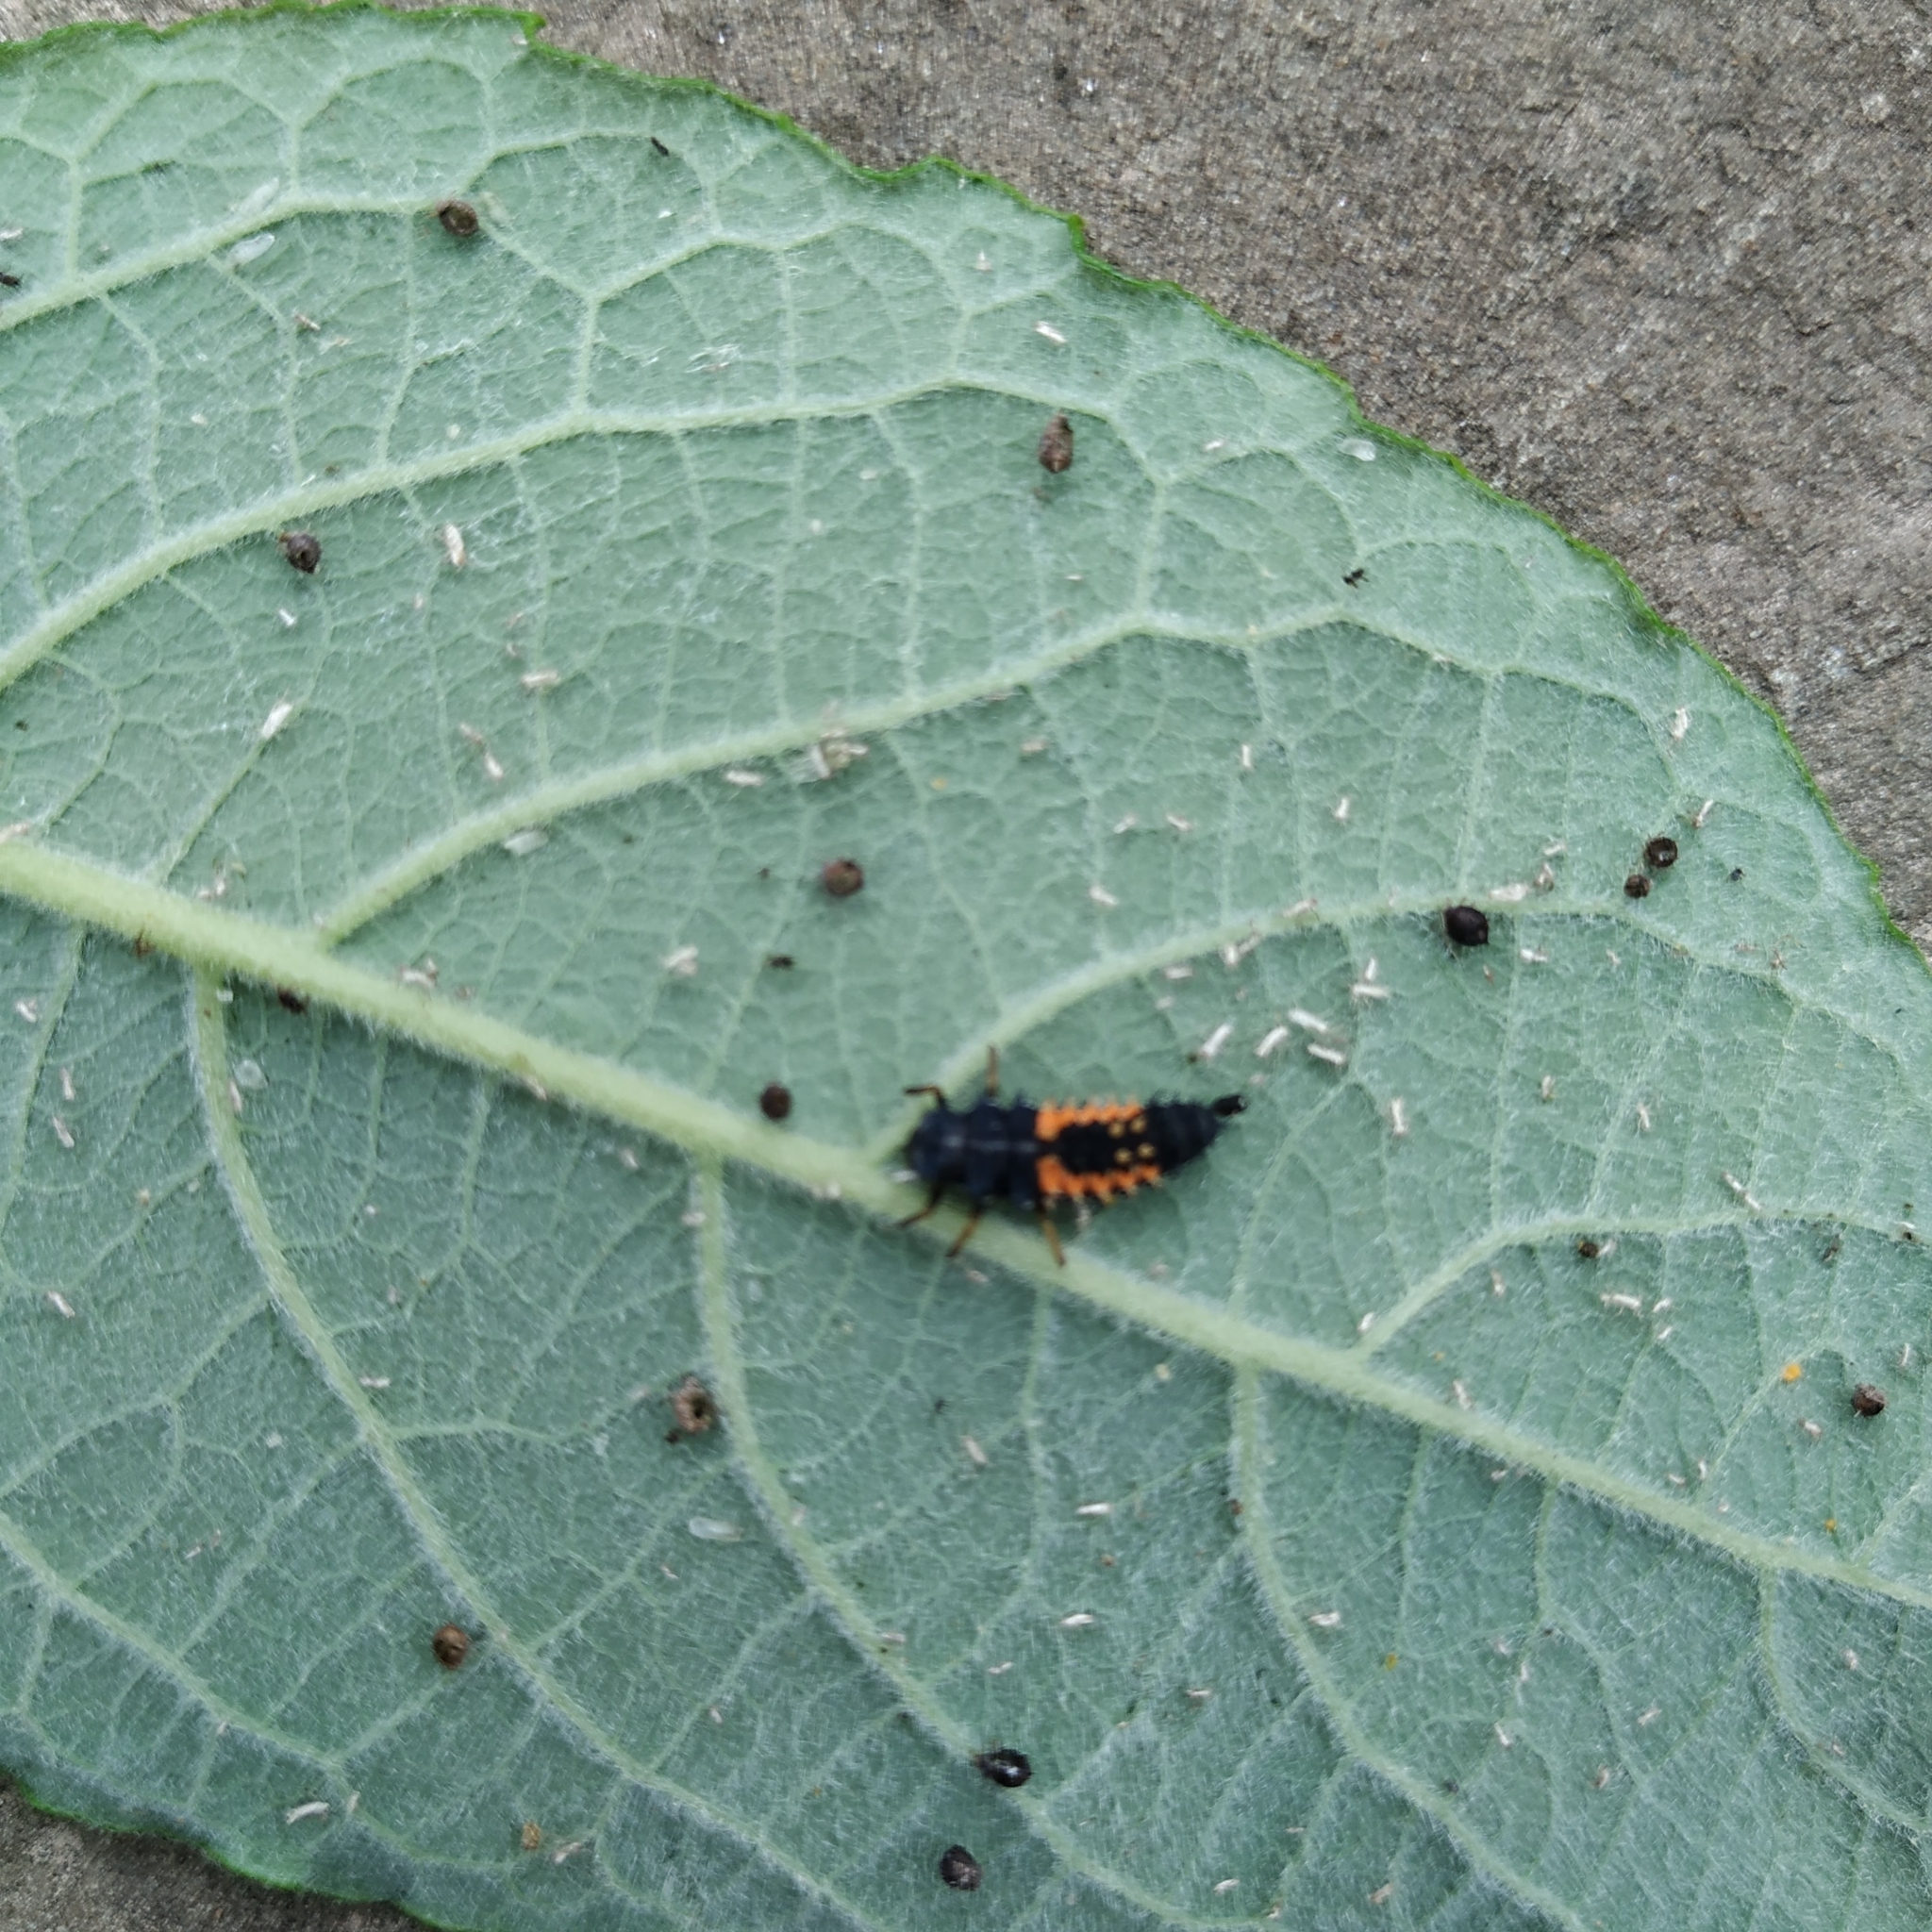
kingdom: Animalia
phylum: Arthropoda
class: Insecta
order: Coleoptera
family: Coccinellidae
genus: Harmonia
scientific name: Harmonia axyridis
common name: Harlequin ladybird
